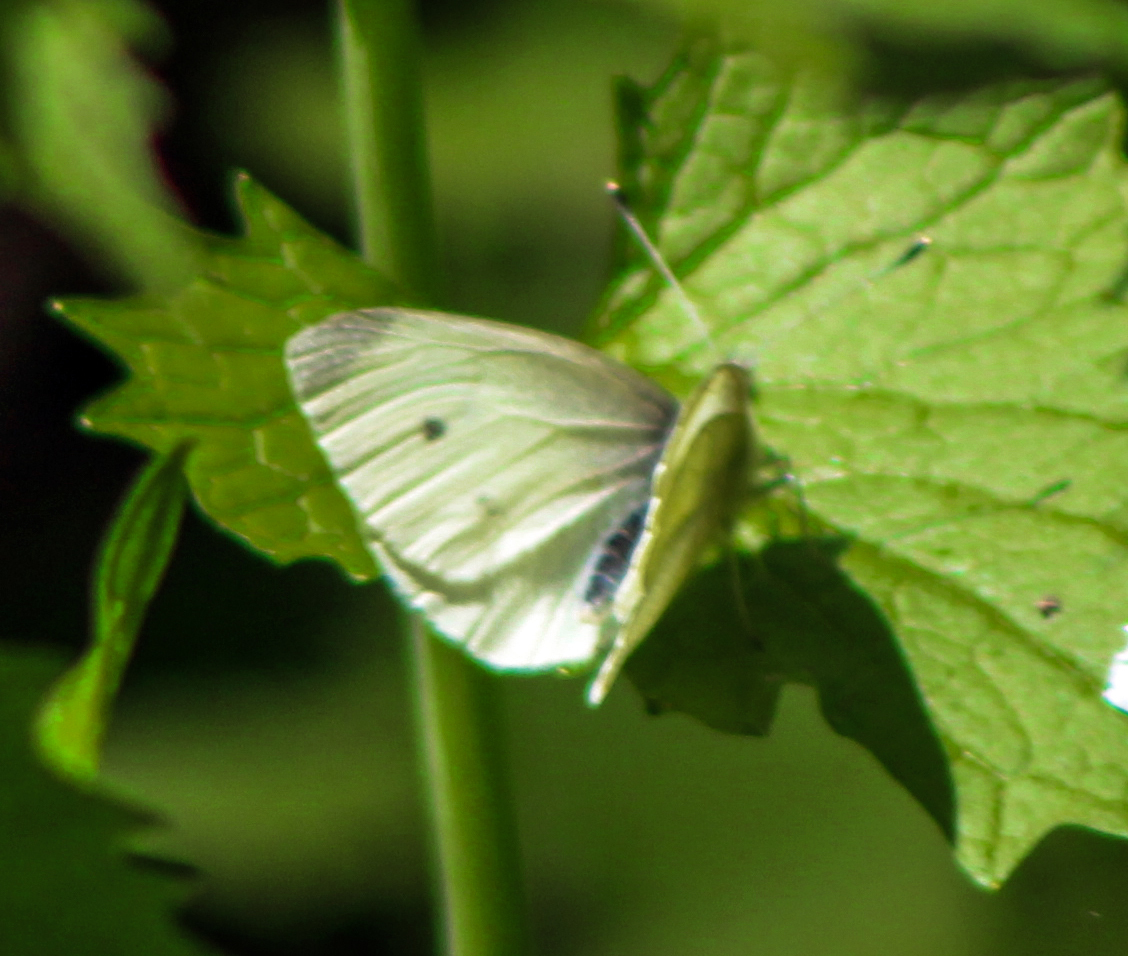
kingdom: Animalia
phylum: Arthropoda
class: Insecta
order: Lepidoptera
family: Pieridae
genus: Pieris
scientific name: Pieris rapae
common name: Small white
